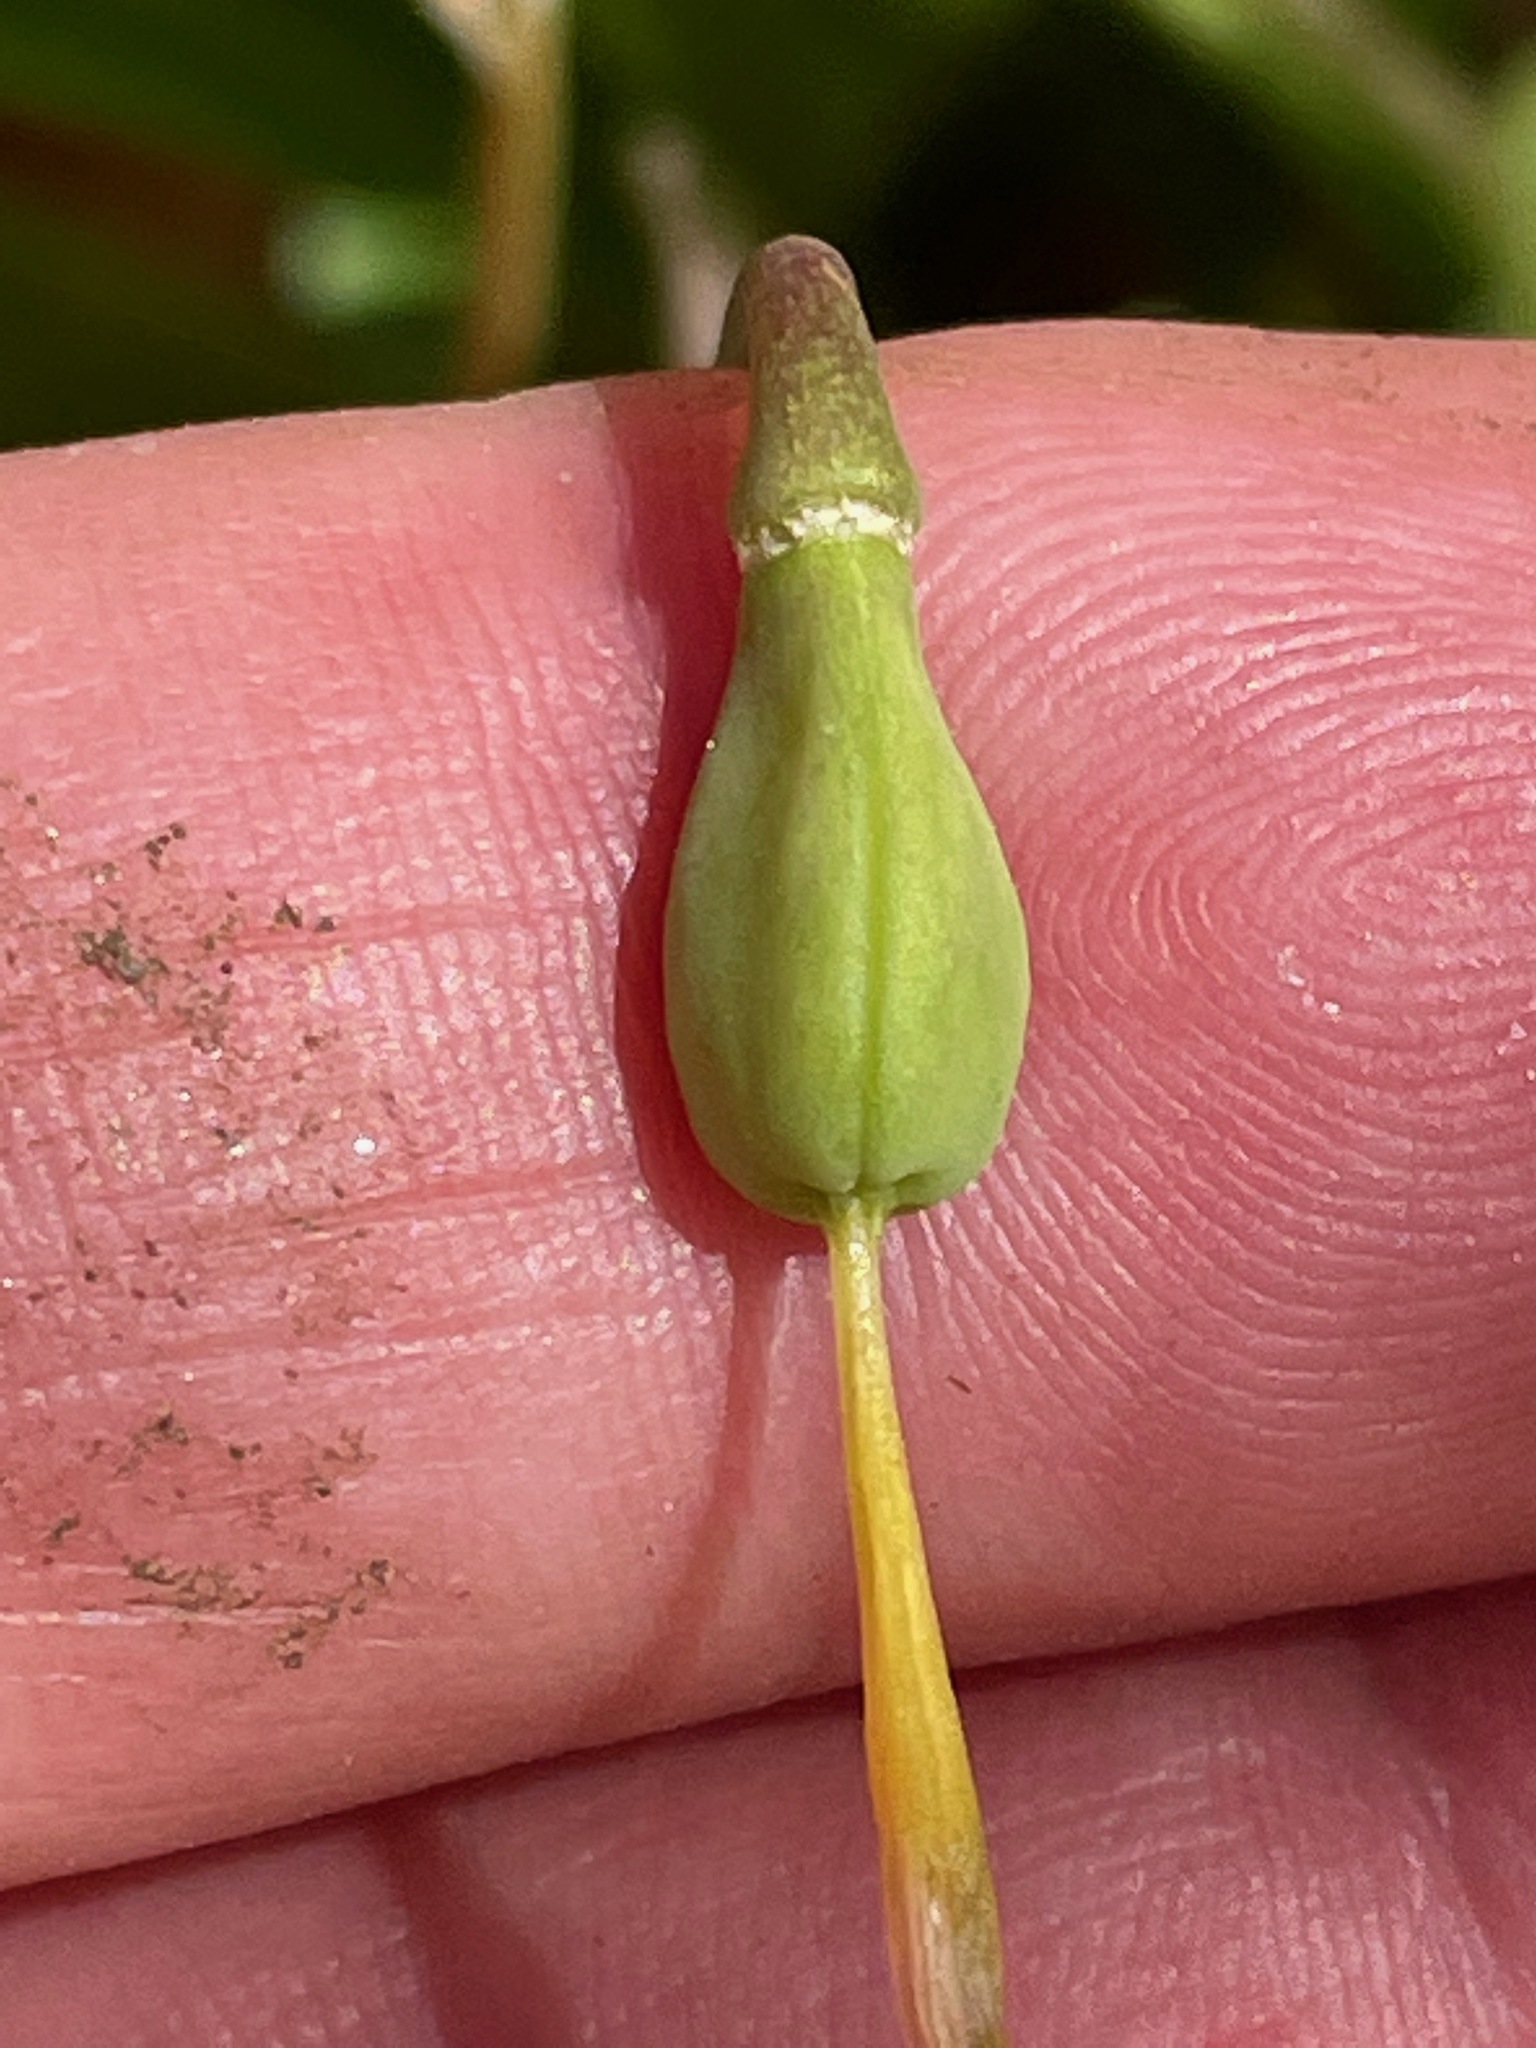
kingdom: Plantae
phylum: Tracheophyta
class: Liliopsida
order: Liliales
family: Liliaceae
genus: Erythronium
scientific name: Erythronium americanum
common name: Yellow adder's-tongue
